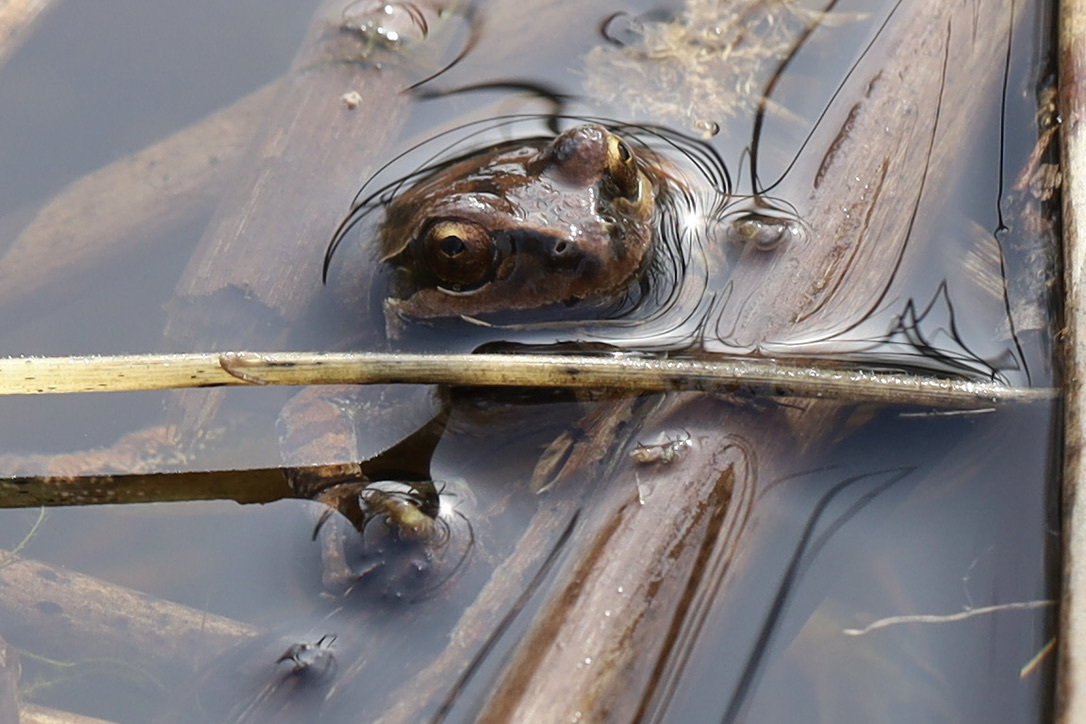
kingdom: Animalia
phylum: Chordata
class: Amphibia
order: Anura
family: Hylidae
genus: Pseudacris
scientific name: Pseudacris regilla
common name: Pacific chorus frog
